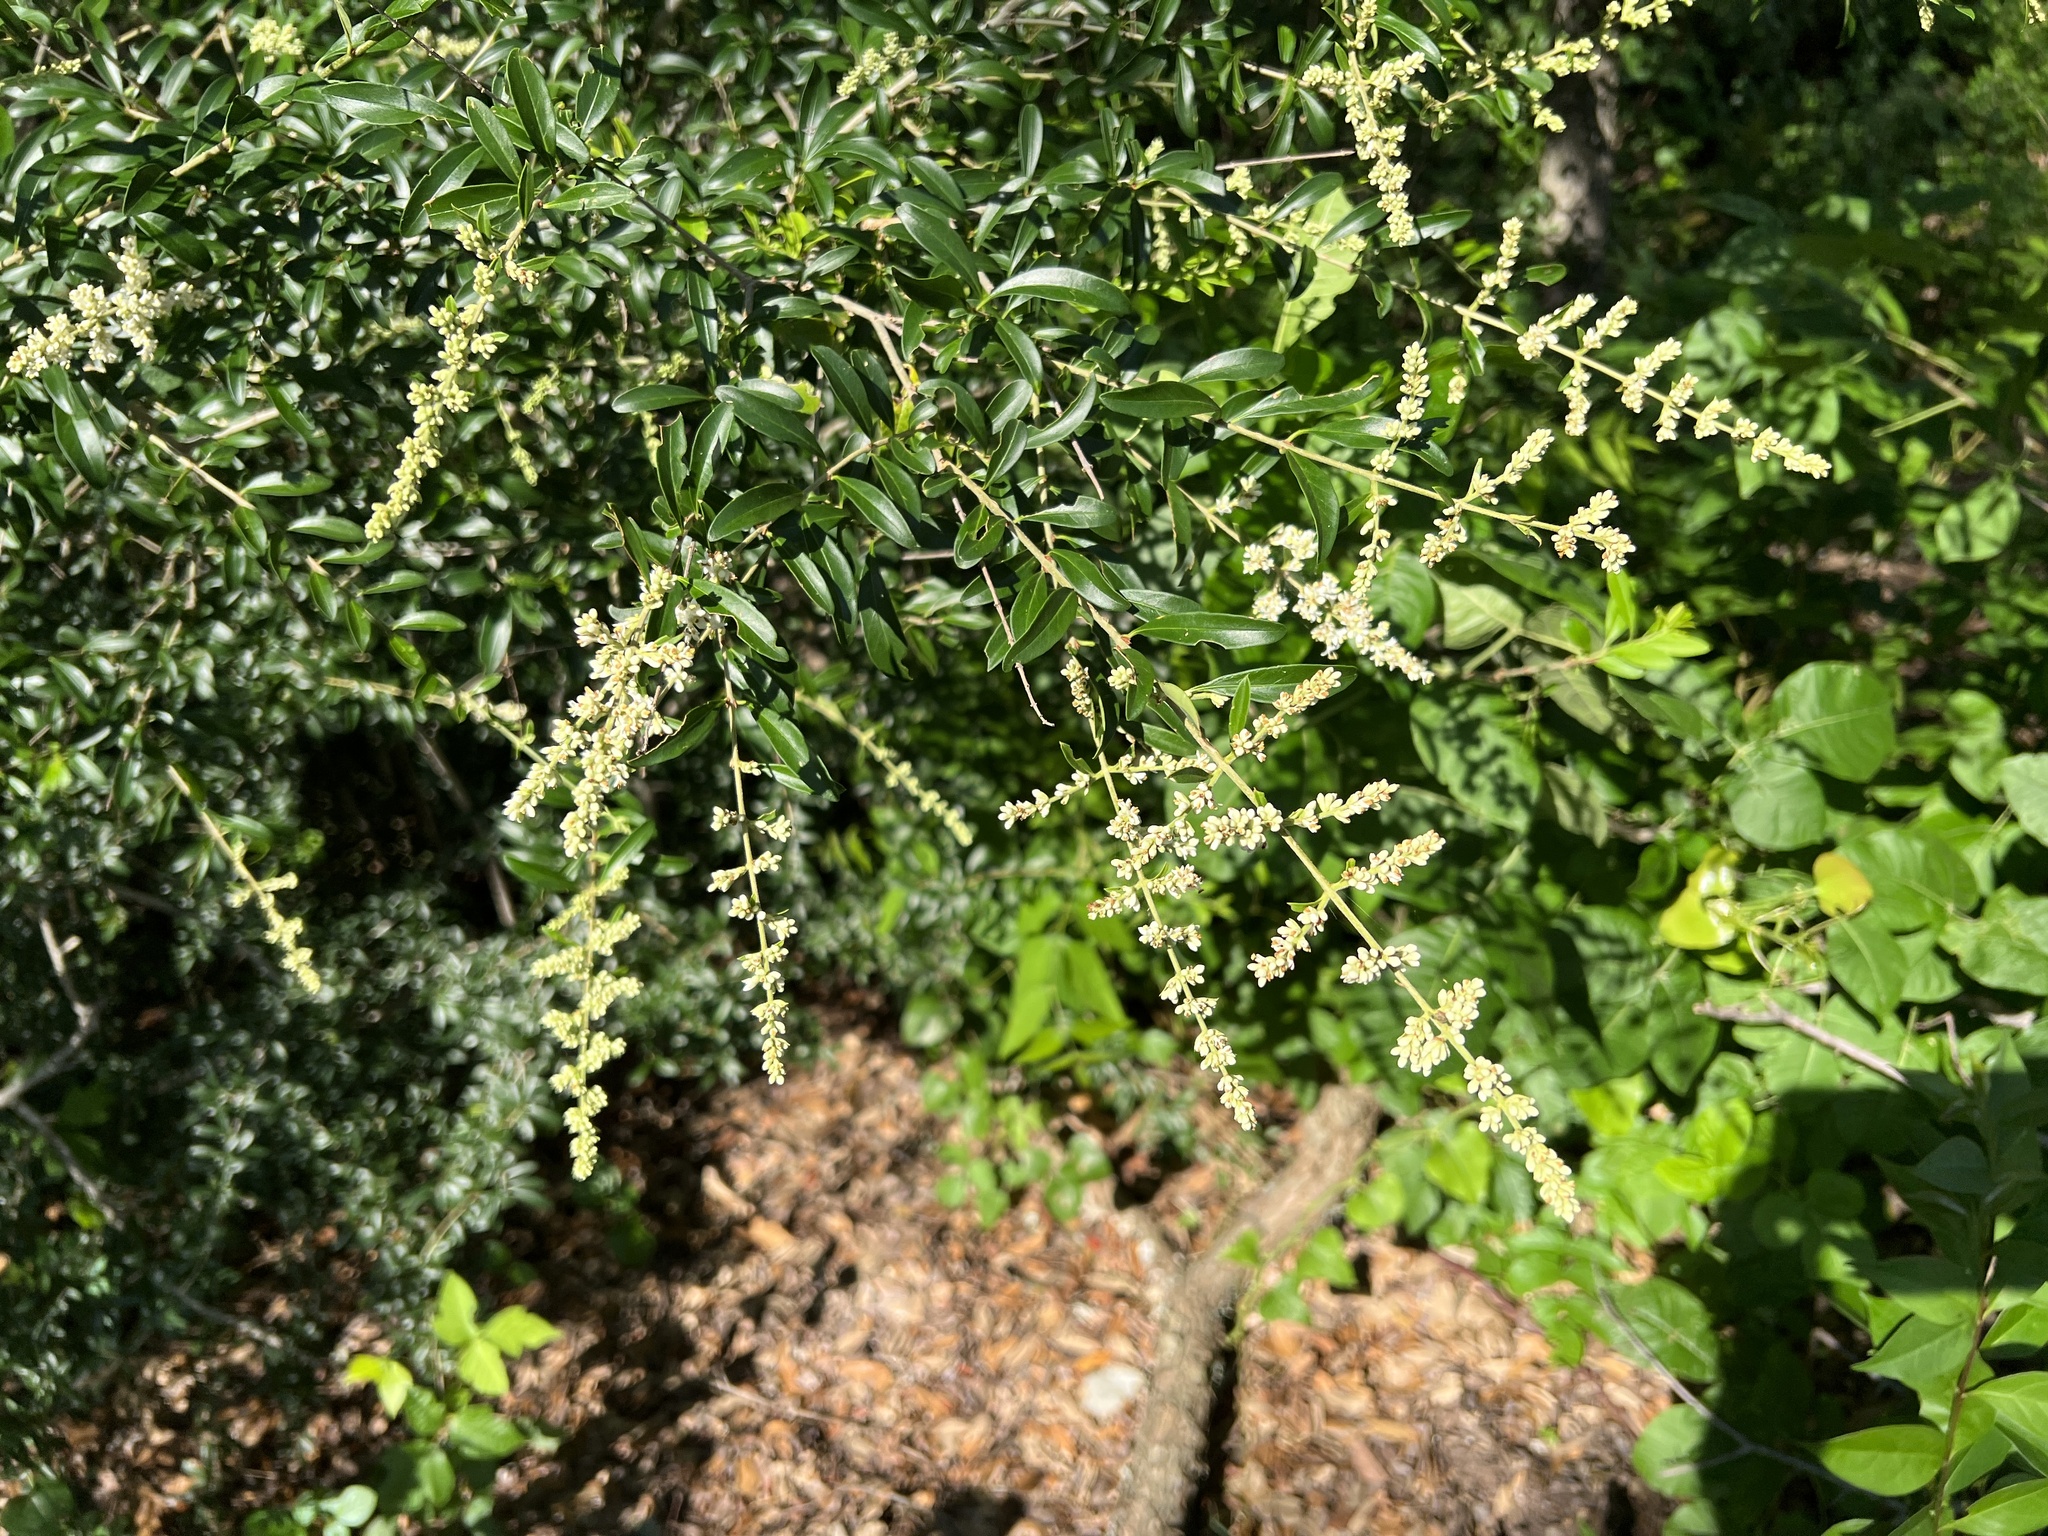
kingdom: Plantae
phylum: Tracheophyta
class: Magnoliopsida
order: Lamiales
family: Oleaceae
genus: Ligustrum
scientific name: Ligustrum quihoui
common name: Waxyleaf privet
